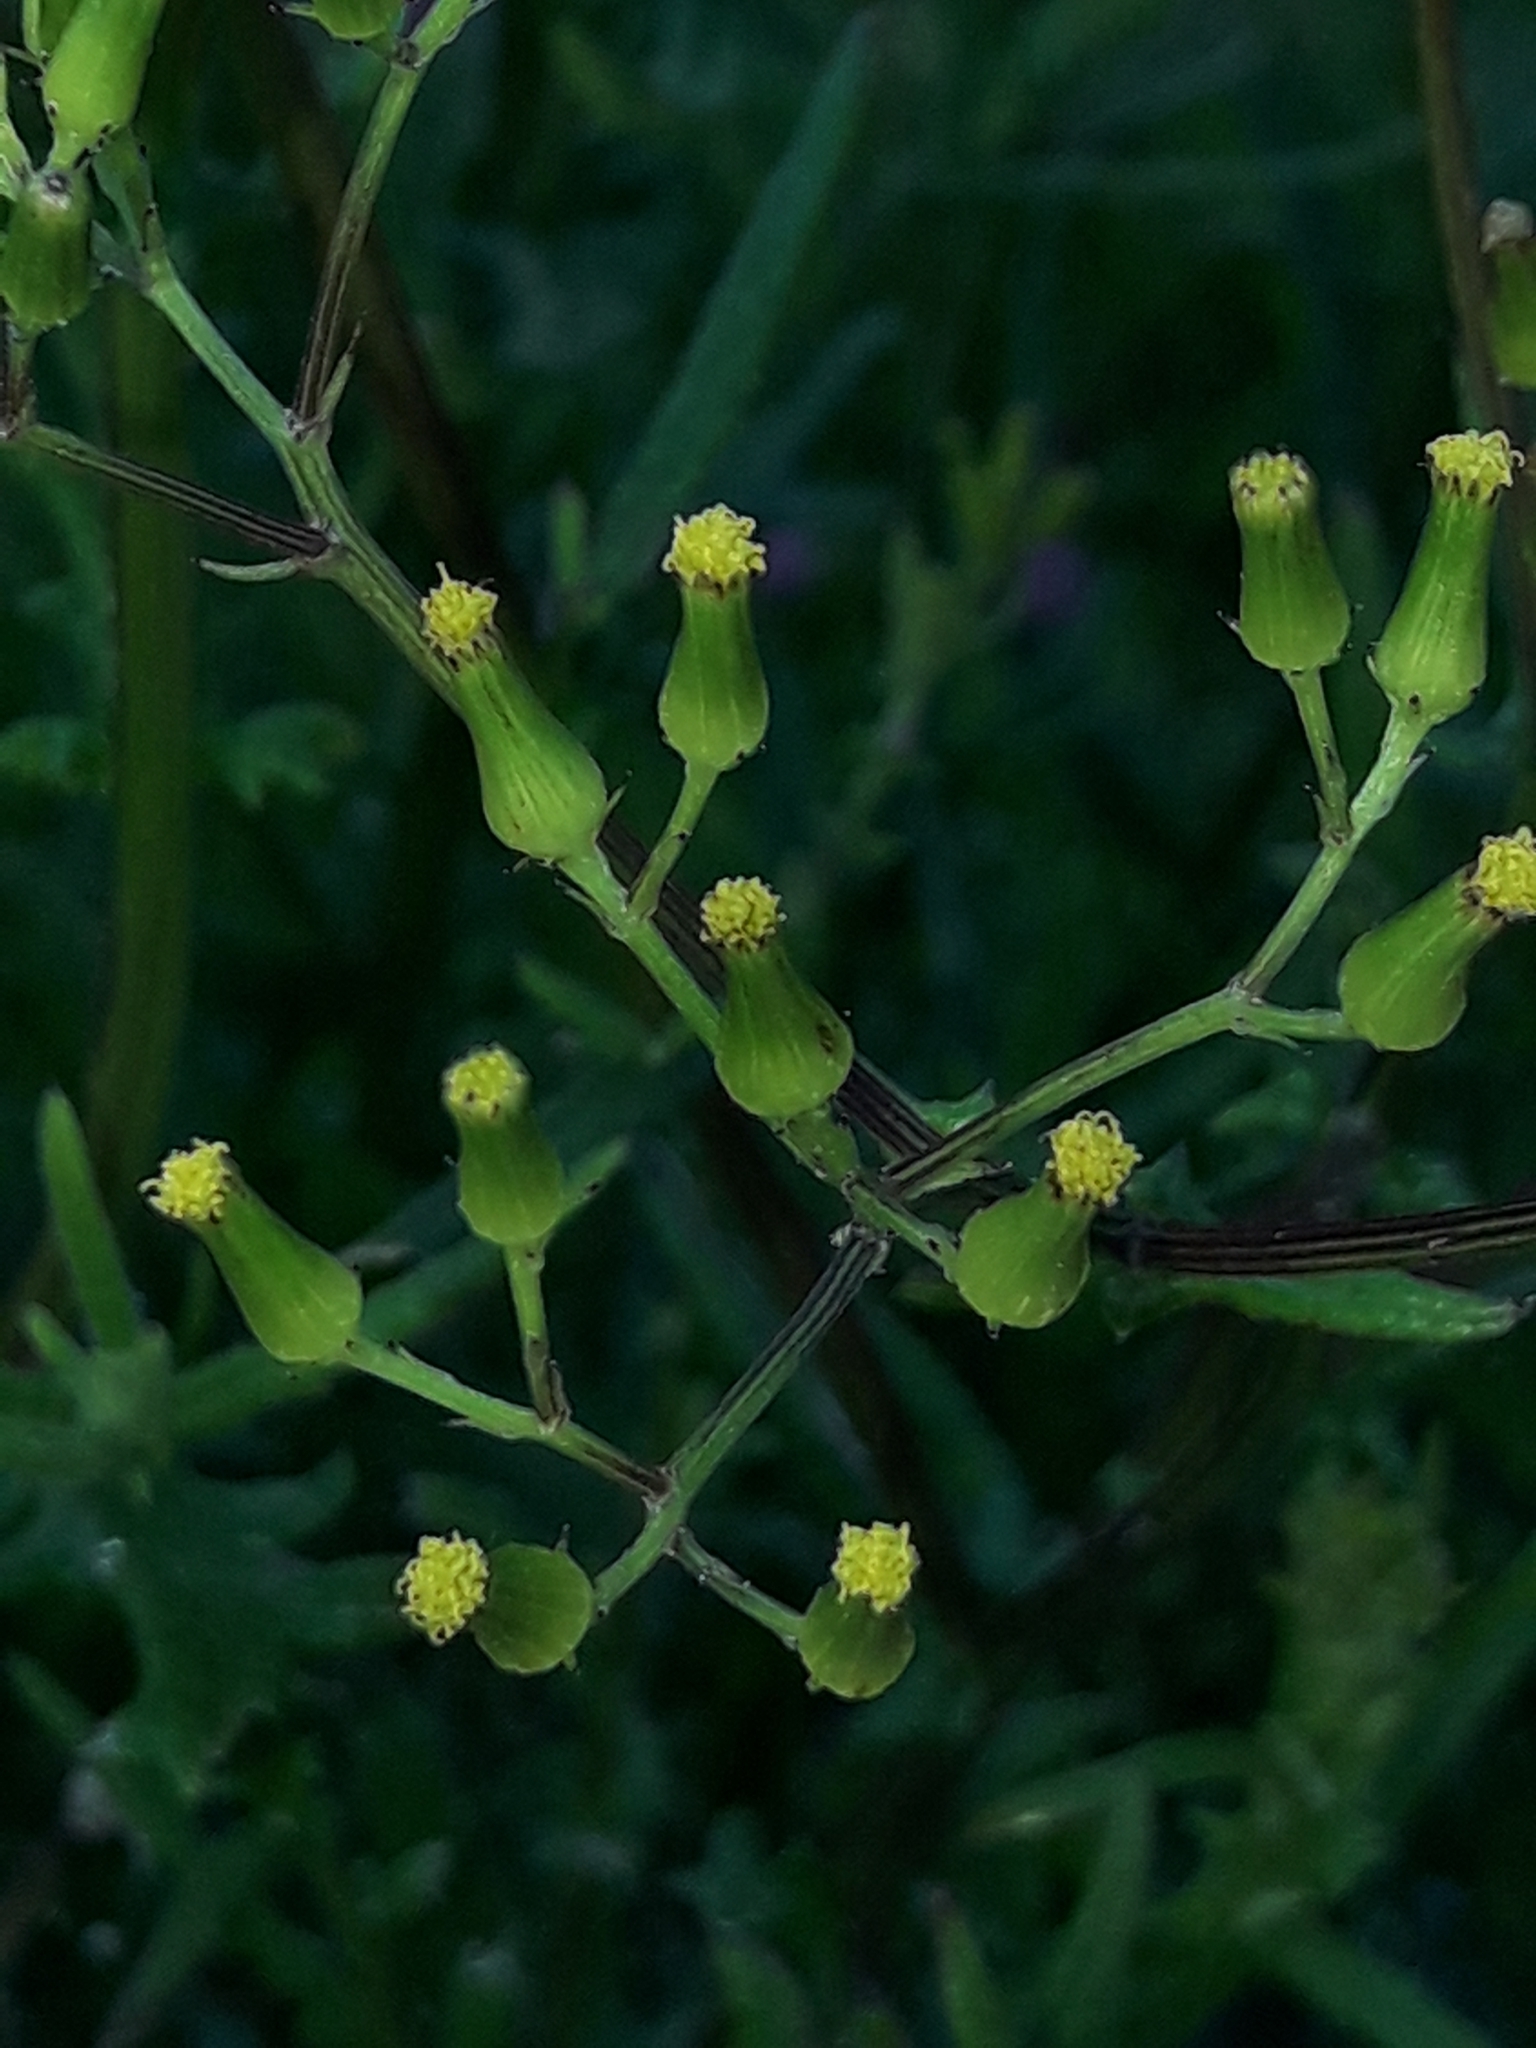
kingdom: Plantae
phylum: Tracheophyta
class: Magnoliopsida
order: Asterales
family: Asteraceae
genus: Senecio
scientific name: Senecio hispidulus
